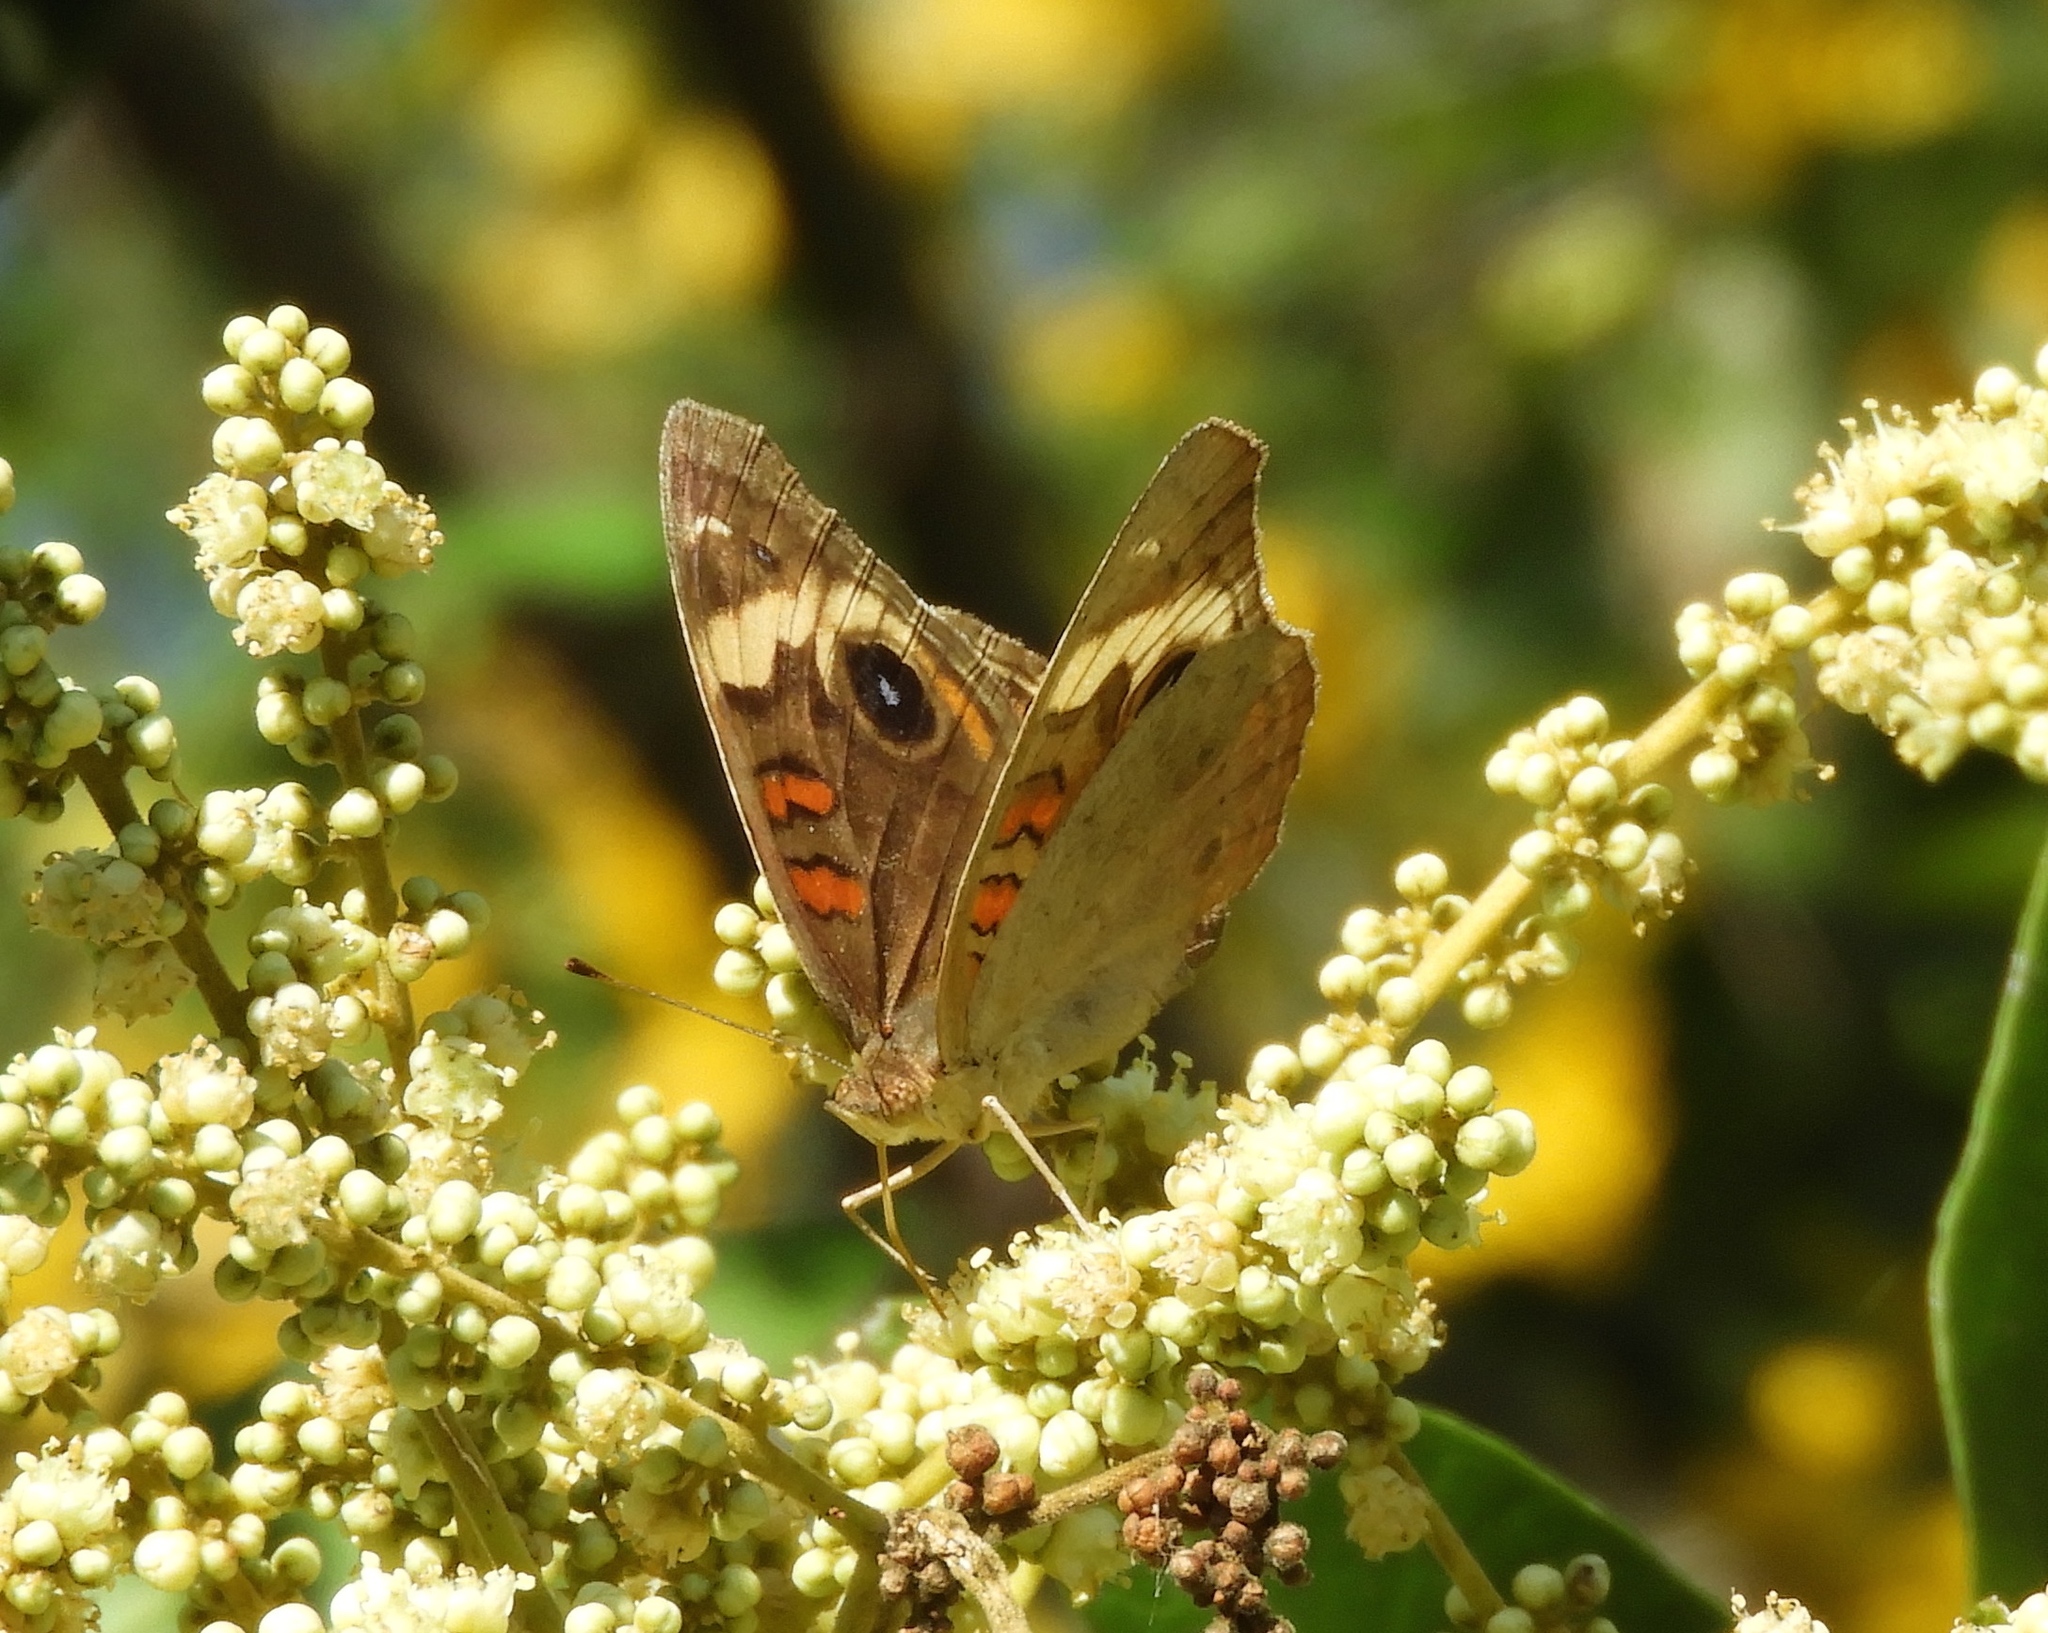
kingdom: Animalia
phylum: Arthropoda
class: Insecta
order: Lepidoptera
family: Nymphalidae
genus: Junonia
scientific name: Junonia
